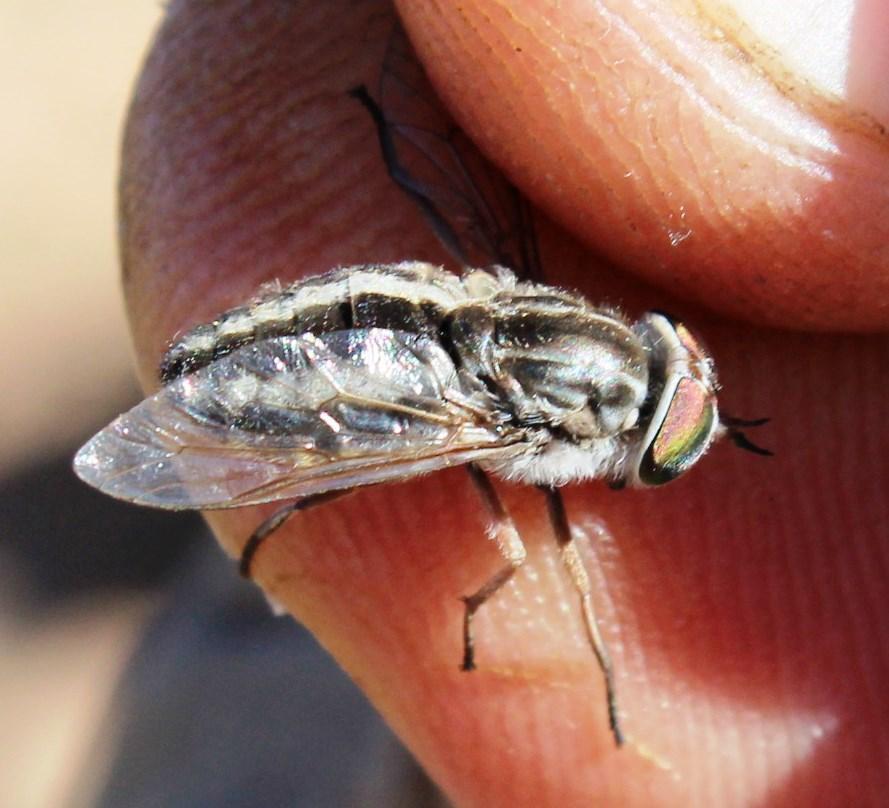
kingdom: Animalia
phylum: Arthropoda
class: Insecta
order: Diptera
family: Tabanidae
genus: Tabanus
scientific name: Tabanus taeniatus
